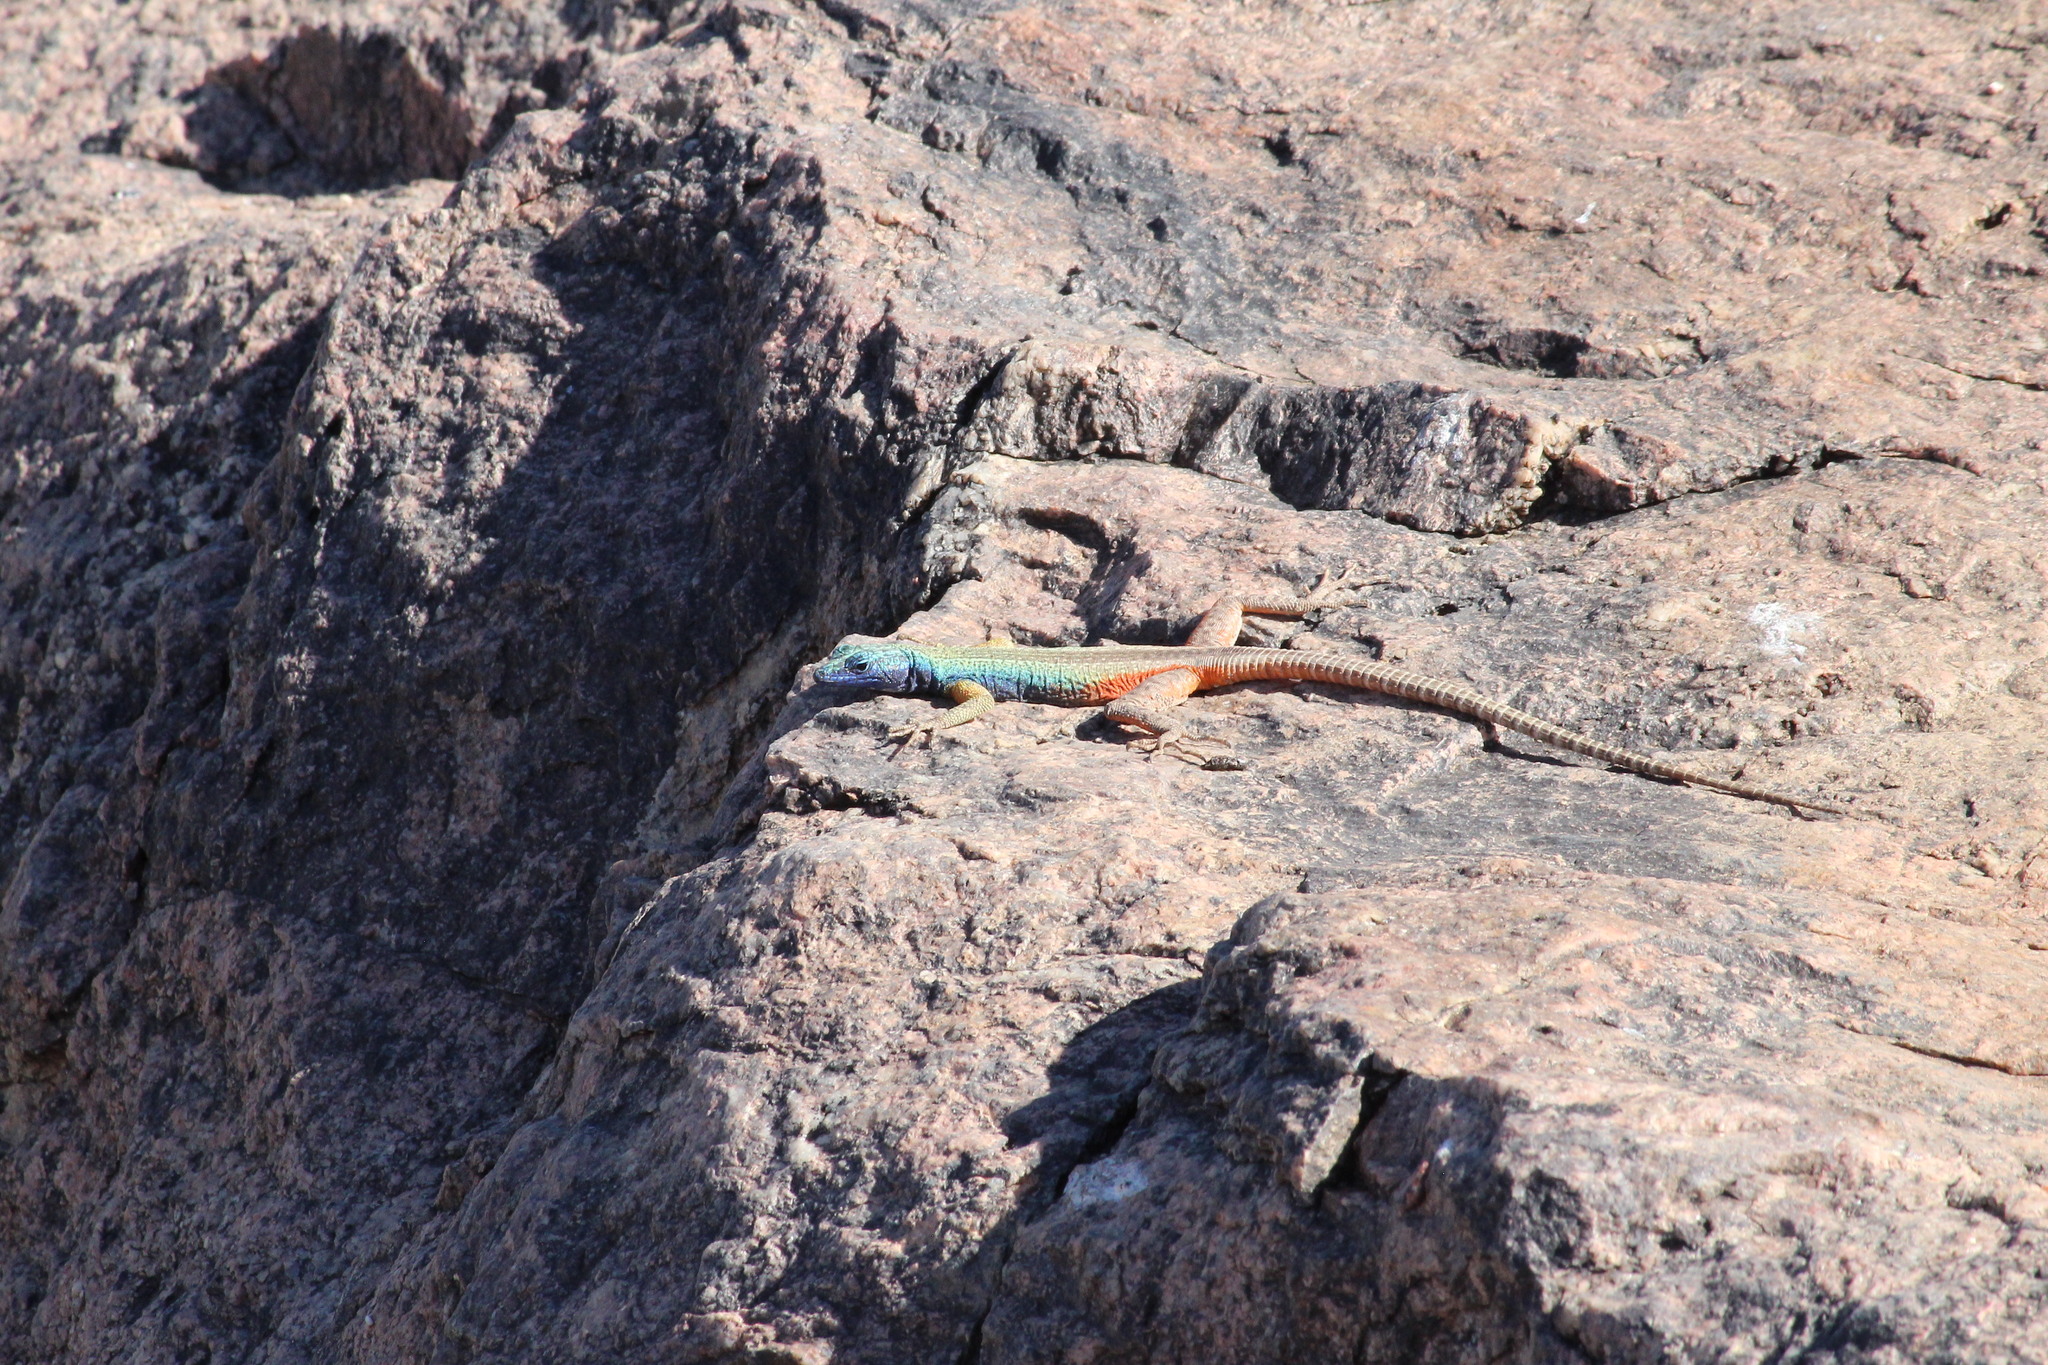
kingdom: Animalia
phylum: Chordata
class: Squamata
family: Cordylidae
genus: Platysaurus
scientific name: Platysaurus broadleyi
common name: Augrabies flat lizard
